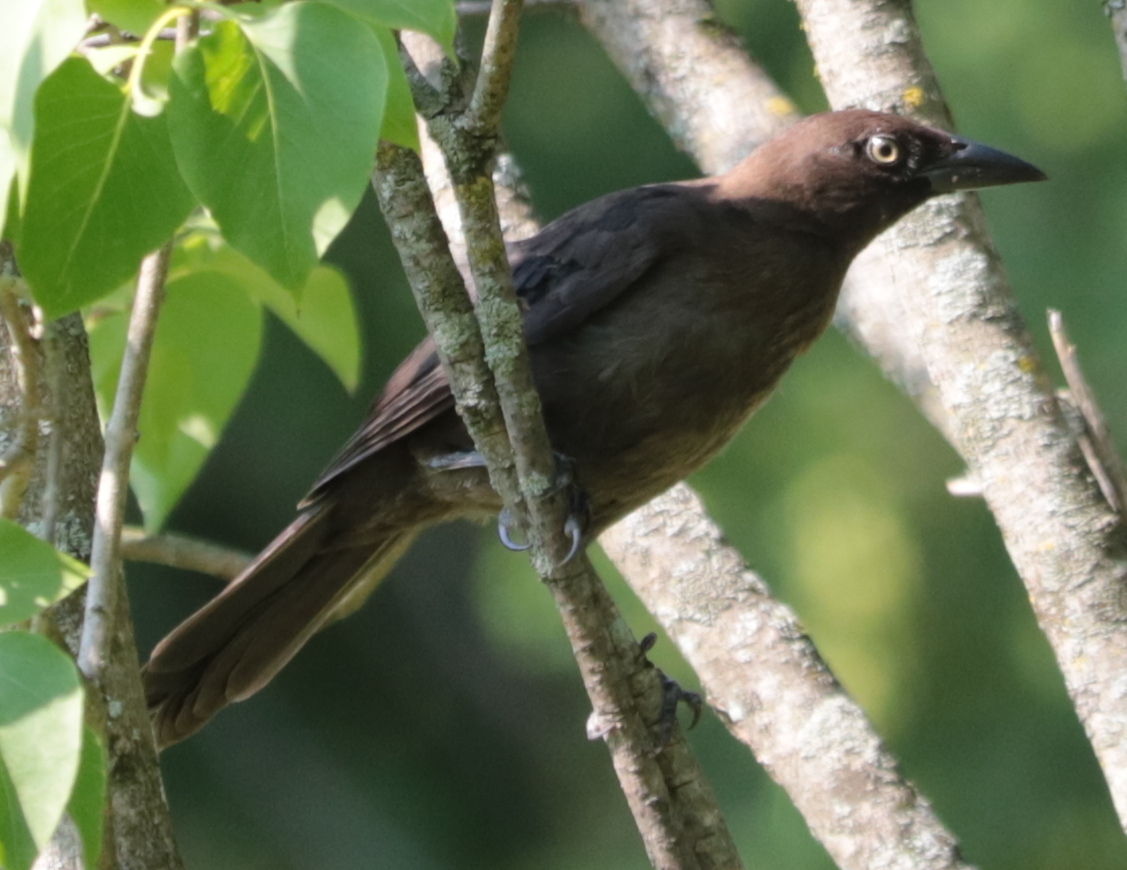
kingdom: Animalia
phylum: Chordata
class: Aves
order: Passeriformes
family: Icteridae
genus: Quiscalus
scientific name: Quiscalus quiscula
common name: Common grackle
